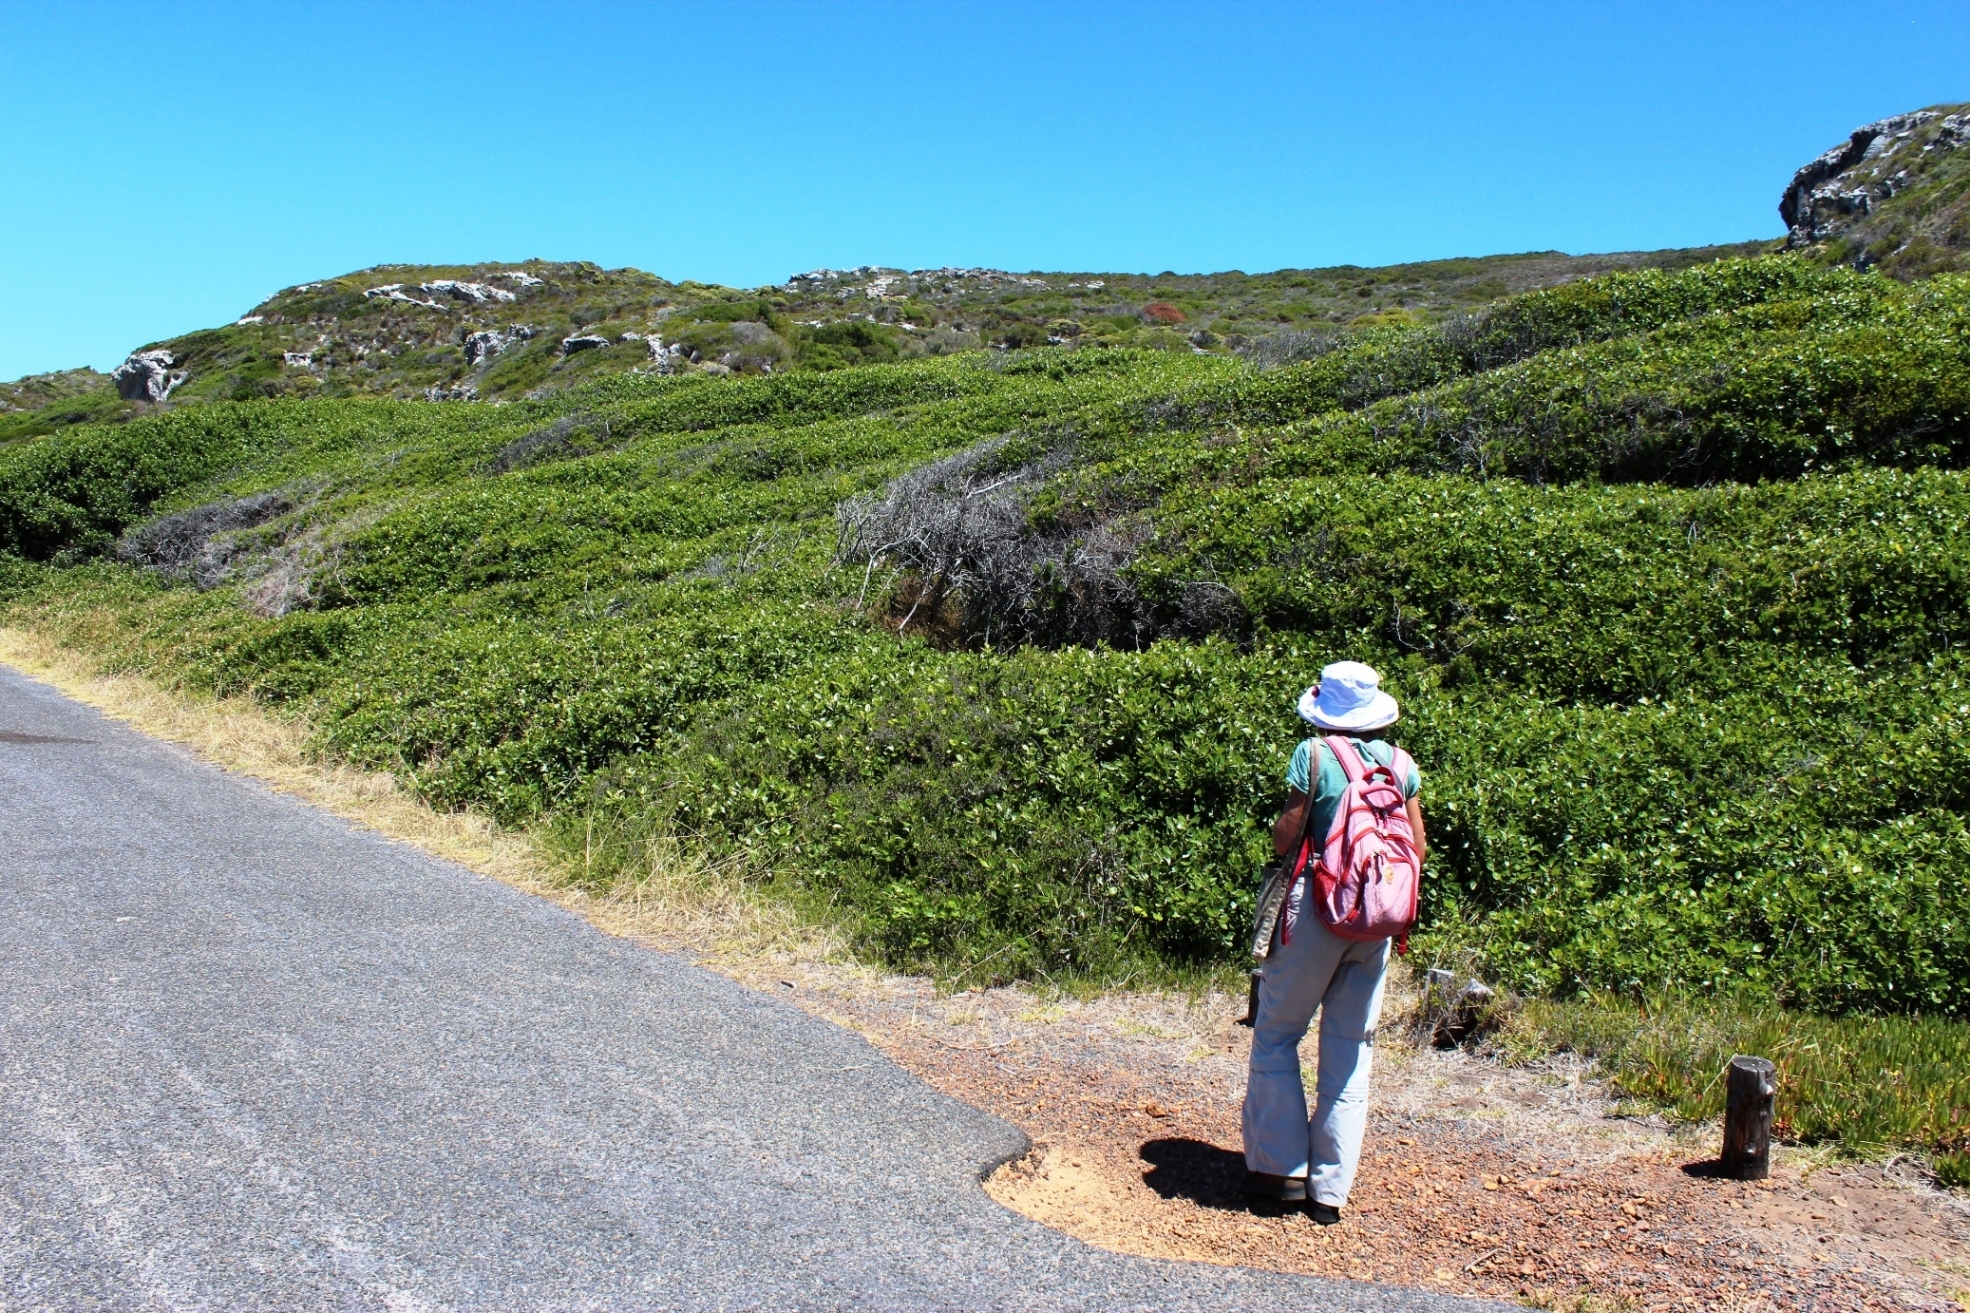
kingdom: Plantae
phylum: Tracheophyta
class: Magnoliopsida
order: Ericales
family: Sapotaceae
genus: Sideroxylon
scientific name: Sideroxylon inerme
